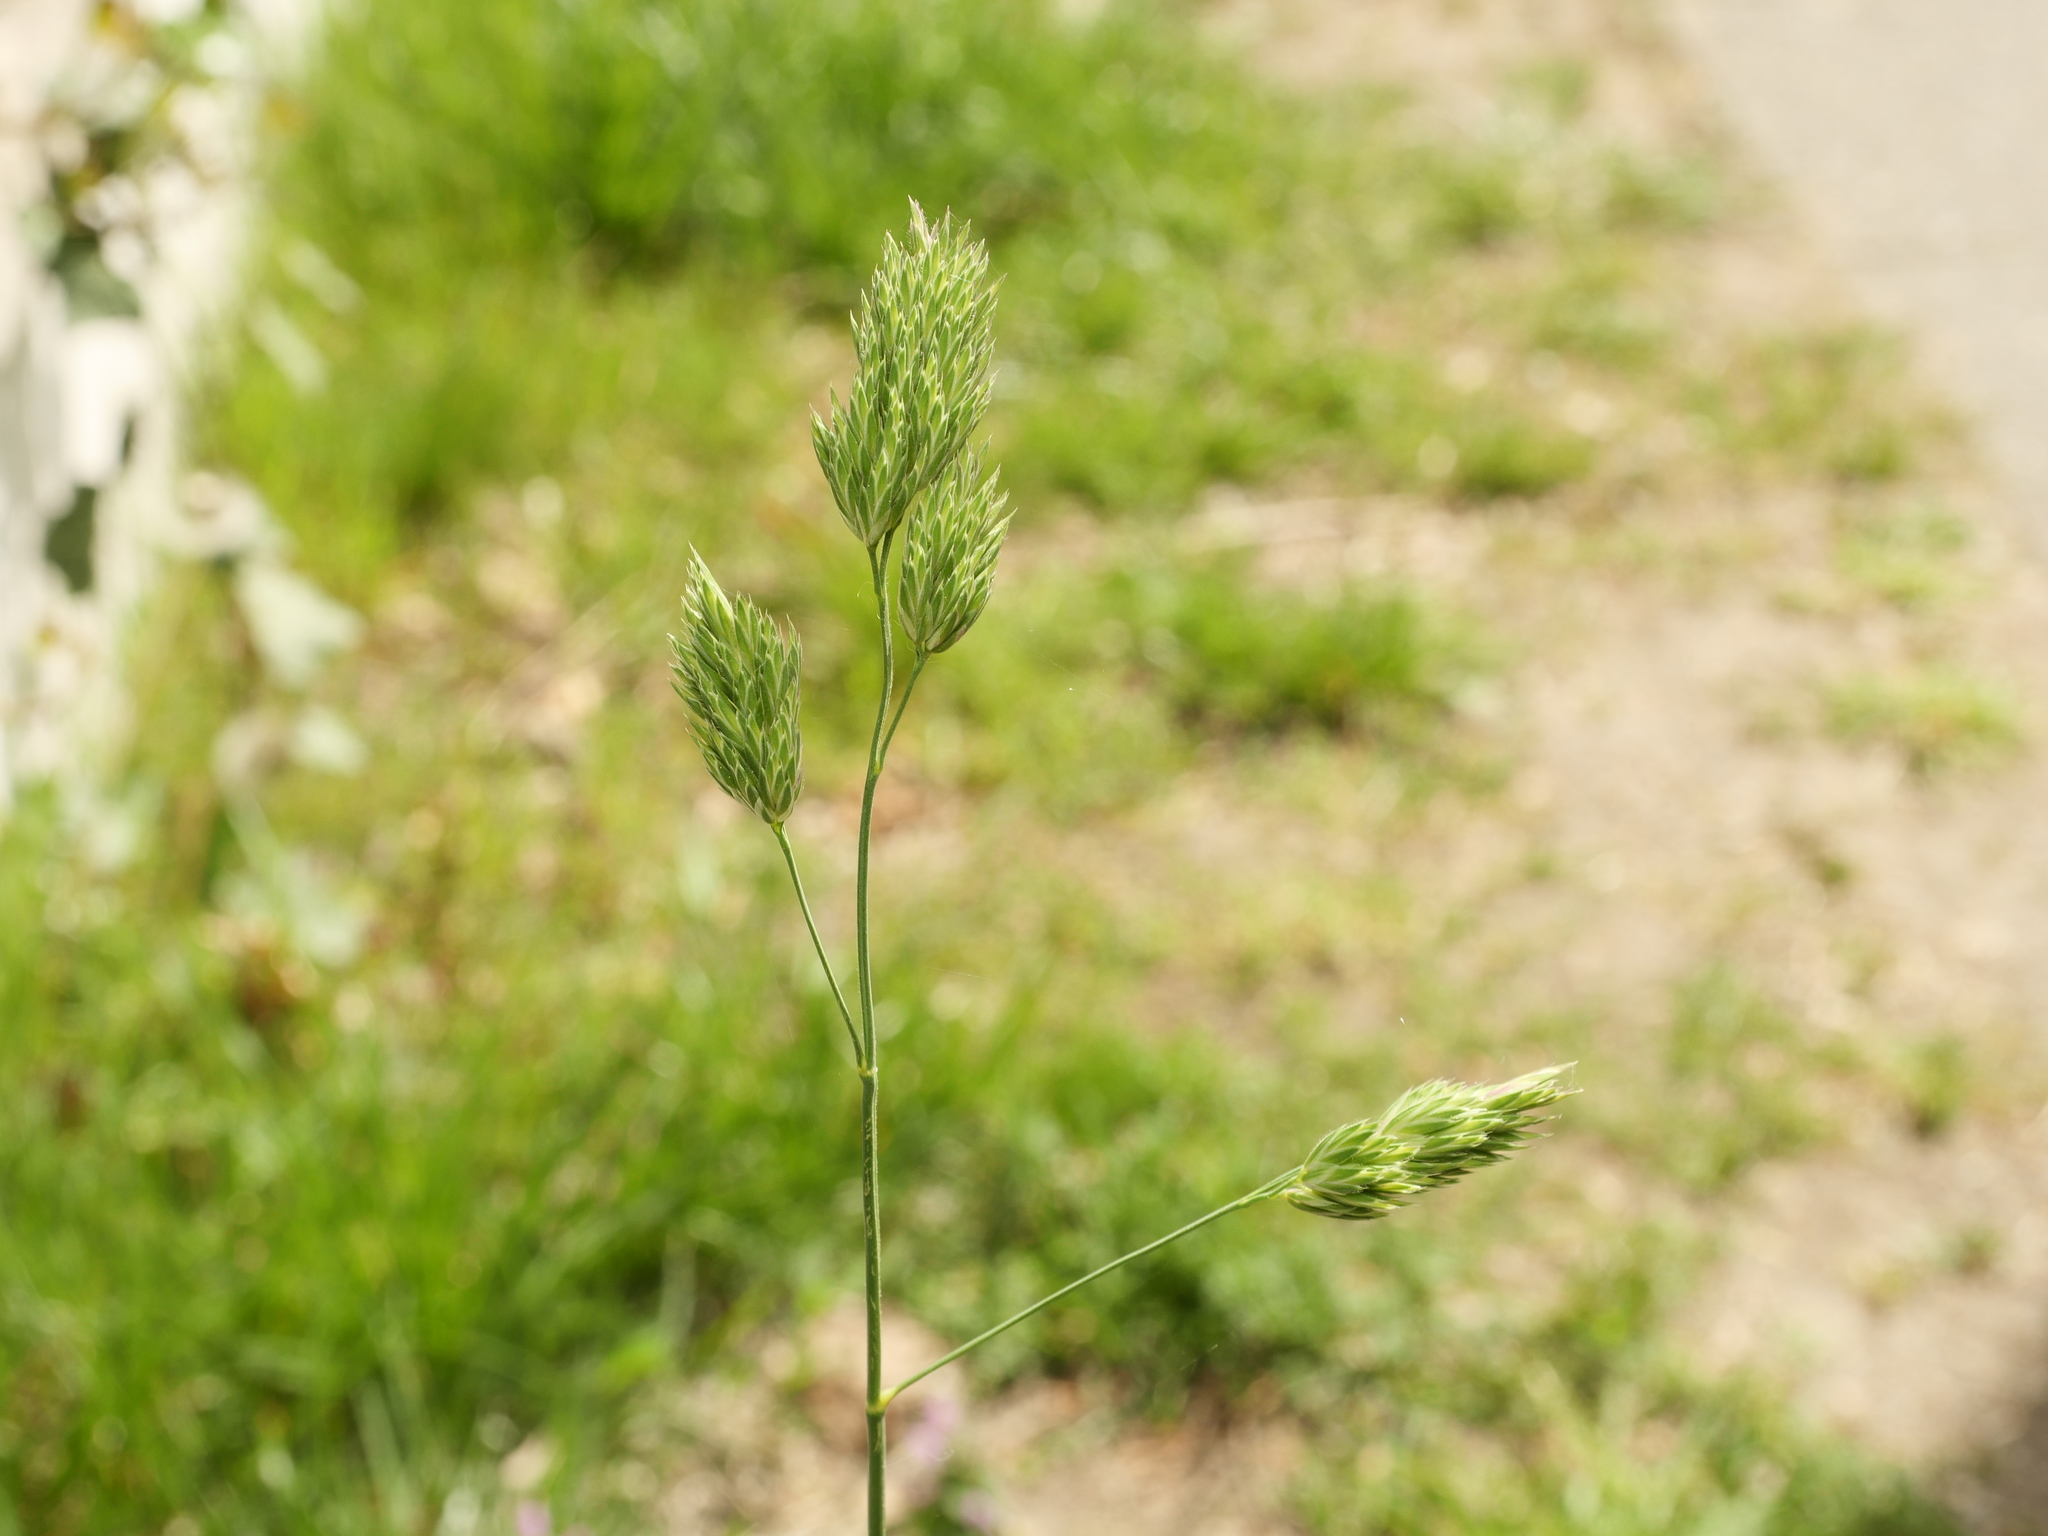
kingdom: Plantae
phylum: Tracheophyta
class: Liliopsida
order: Poales
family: Poaceae
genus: Dactylis
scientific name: Dactylis glomerata
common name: Orchardgrass
